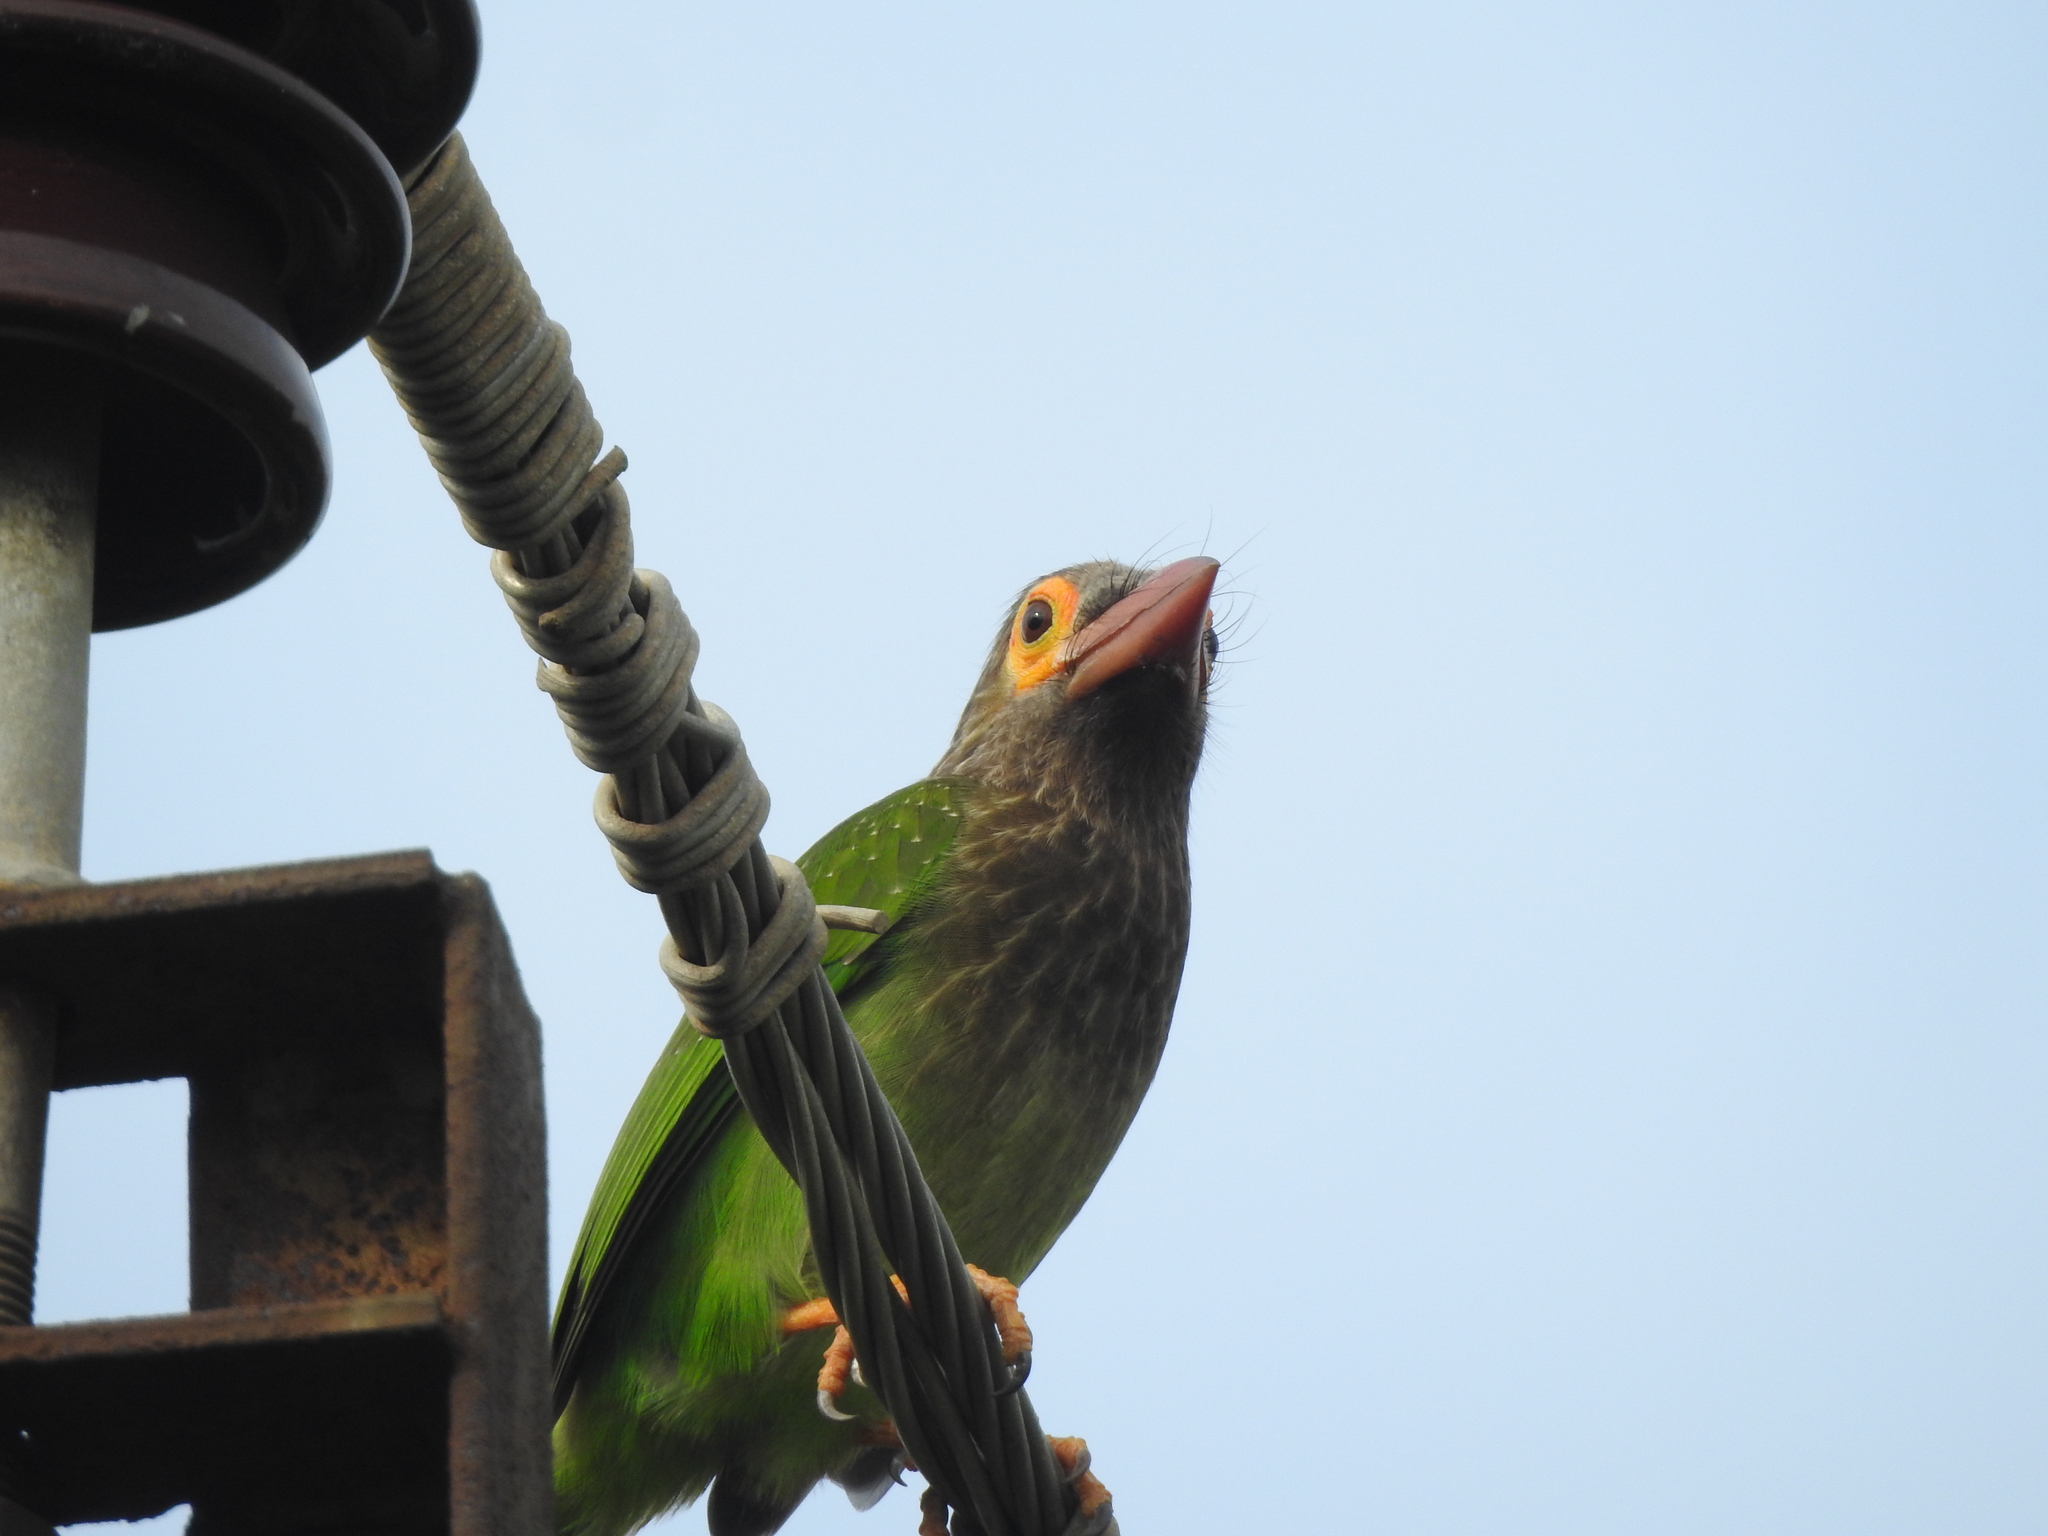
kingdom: Animalia
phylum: Chordata
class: Aves
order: Piciformes
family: Megalaimidae
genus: Psilopogon
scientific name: Psilopogon zeylanicus
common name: Brown-headed barbet
